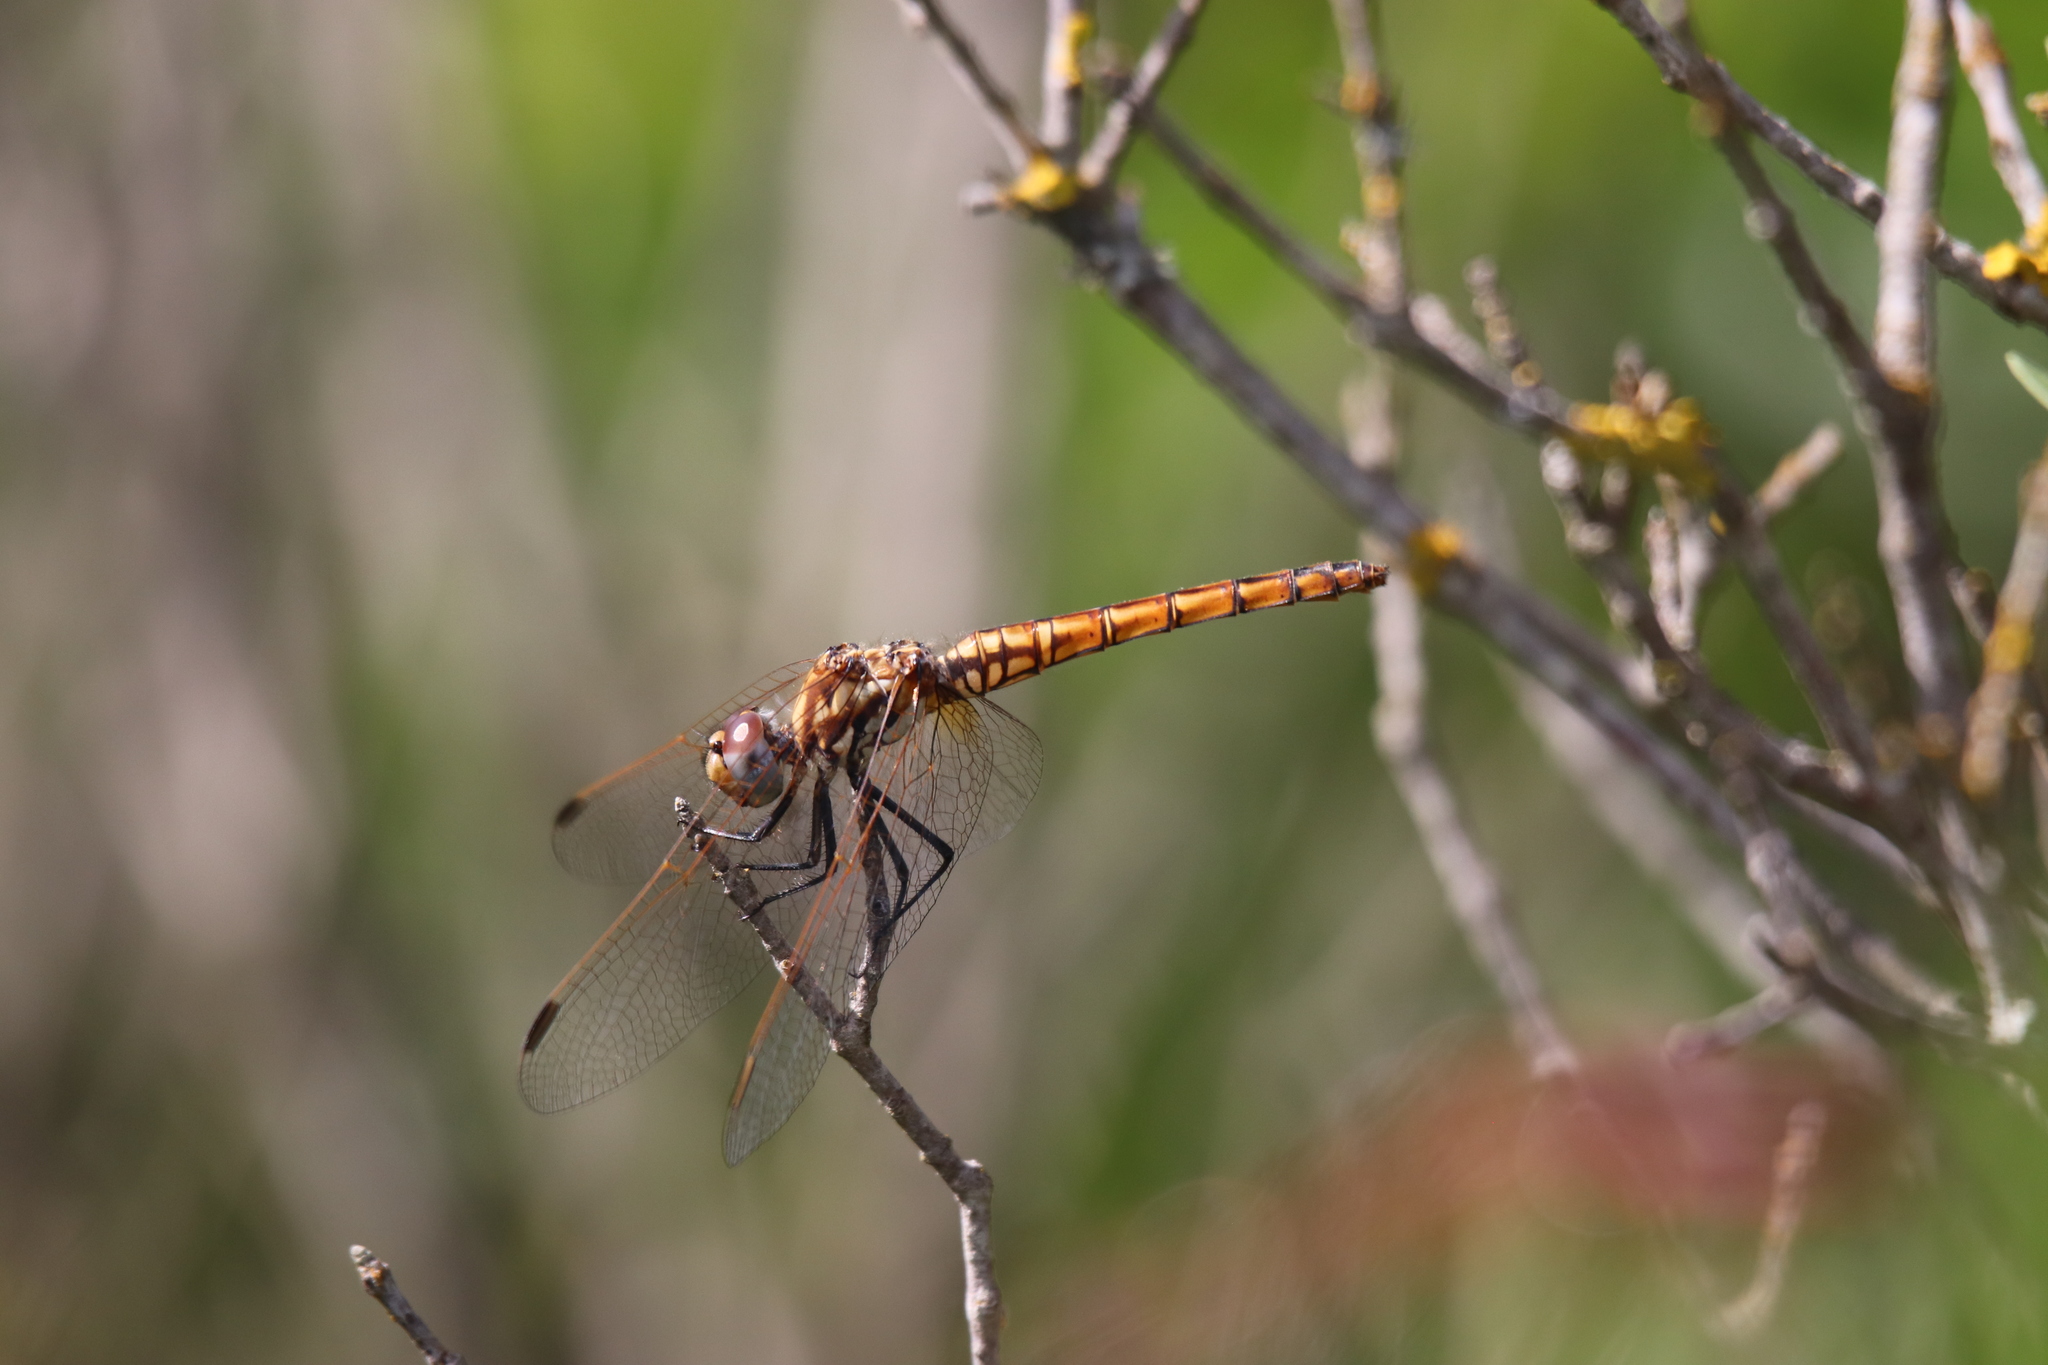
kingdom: Animalia
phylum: Arthropoda
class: Insecta
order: Odonata
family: Libellulidae
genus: Trithemis
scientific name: Trithemis annulata
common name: Violet dropwing
